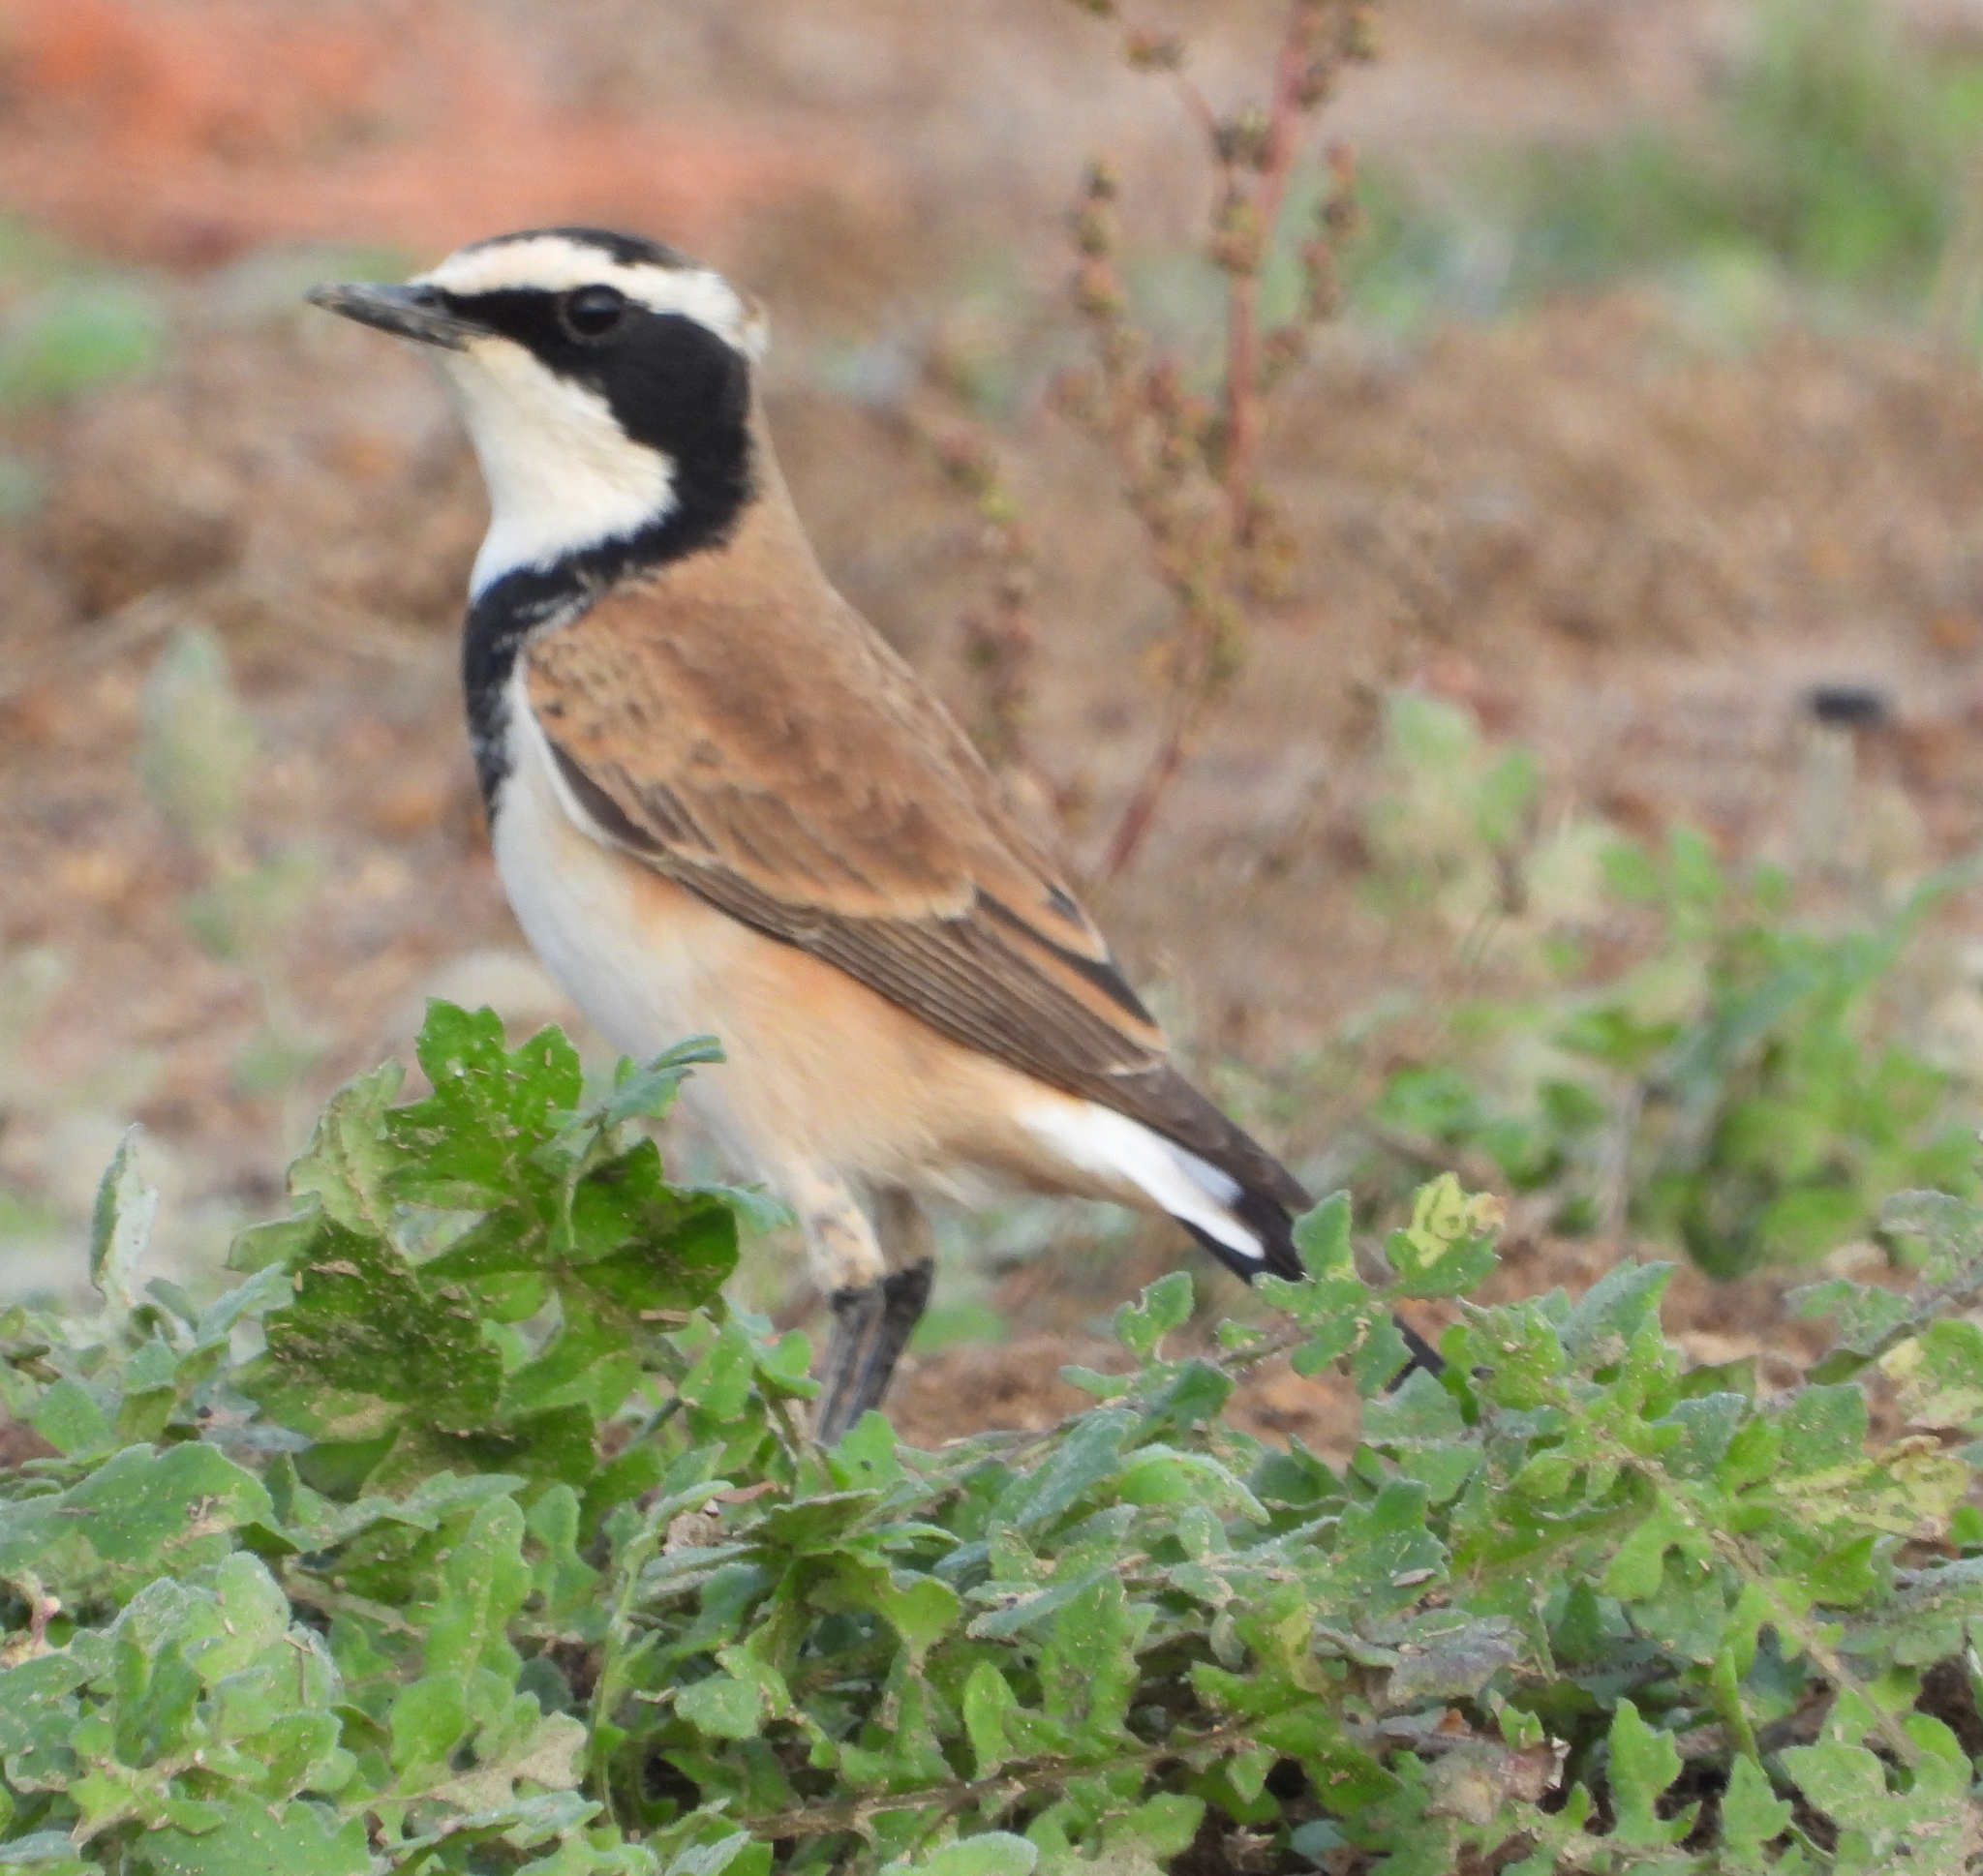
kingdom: Animalia
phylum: Chordata
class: Aves
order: Passeriformes
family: Muscicapidae
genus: Oenanthe
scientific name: Oenanthe pileata
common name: Capped wheatear
